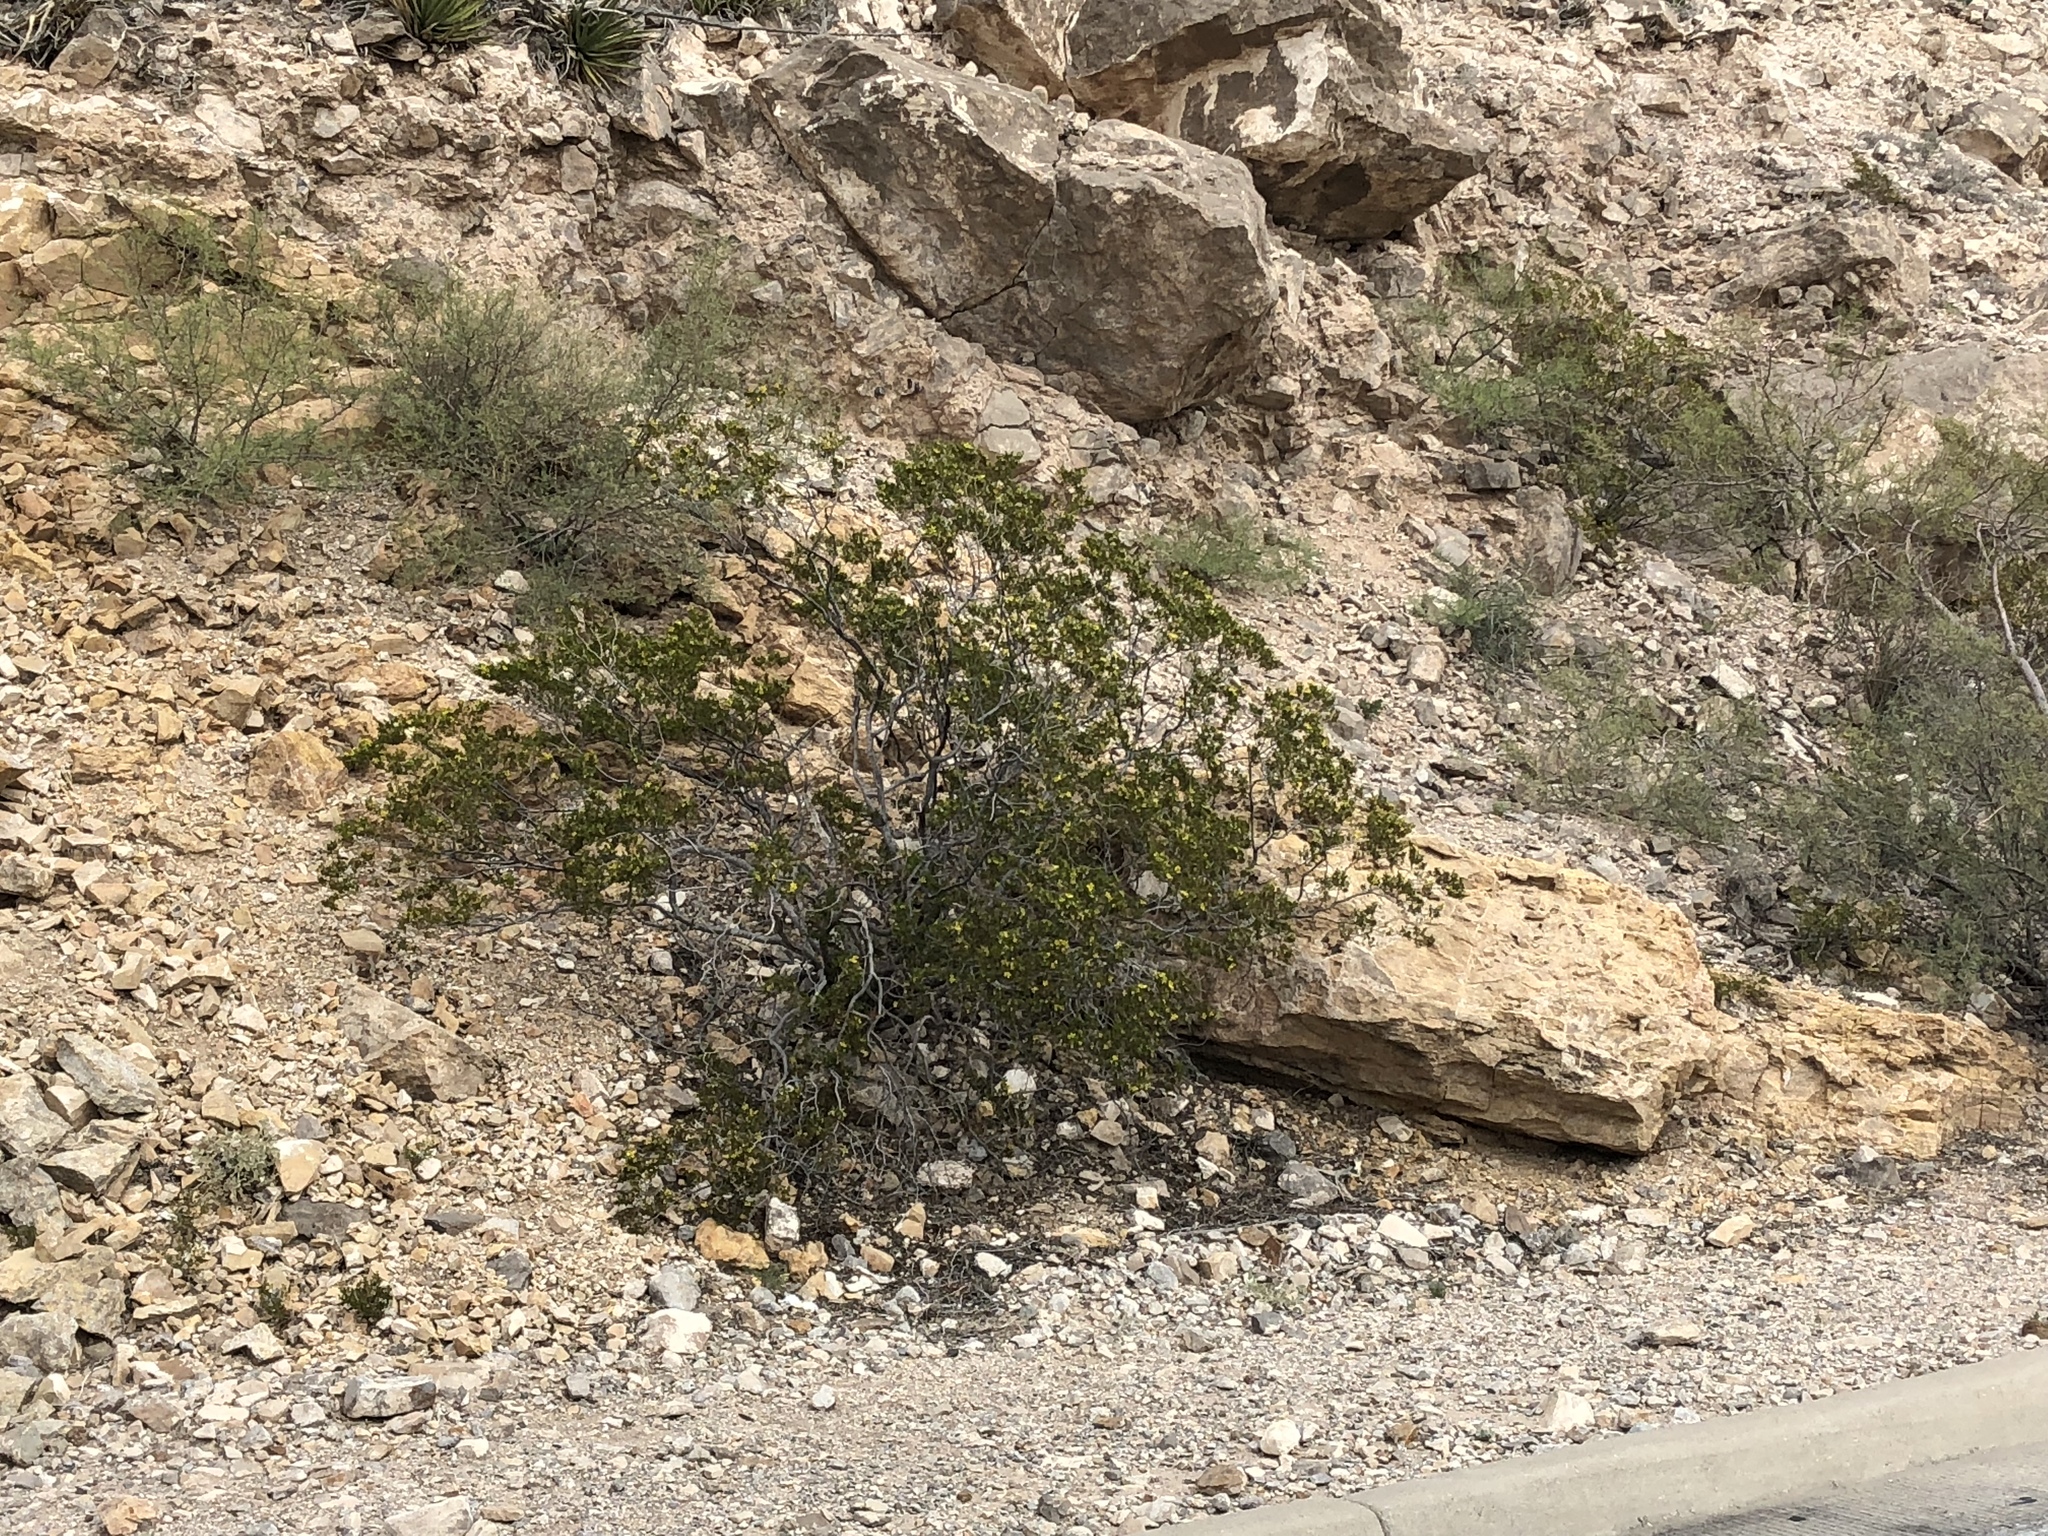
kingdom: Plantae
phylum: Tracheophyta
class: Magnoliopsida
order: Zygophyllales
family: Zygophyllaceae
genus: Larrea
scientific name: Larrea tridentata
